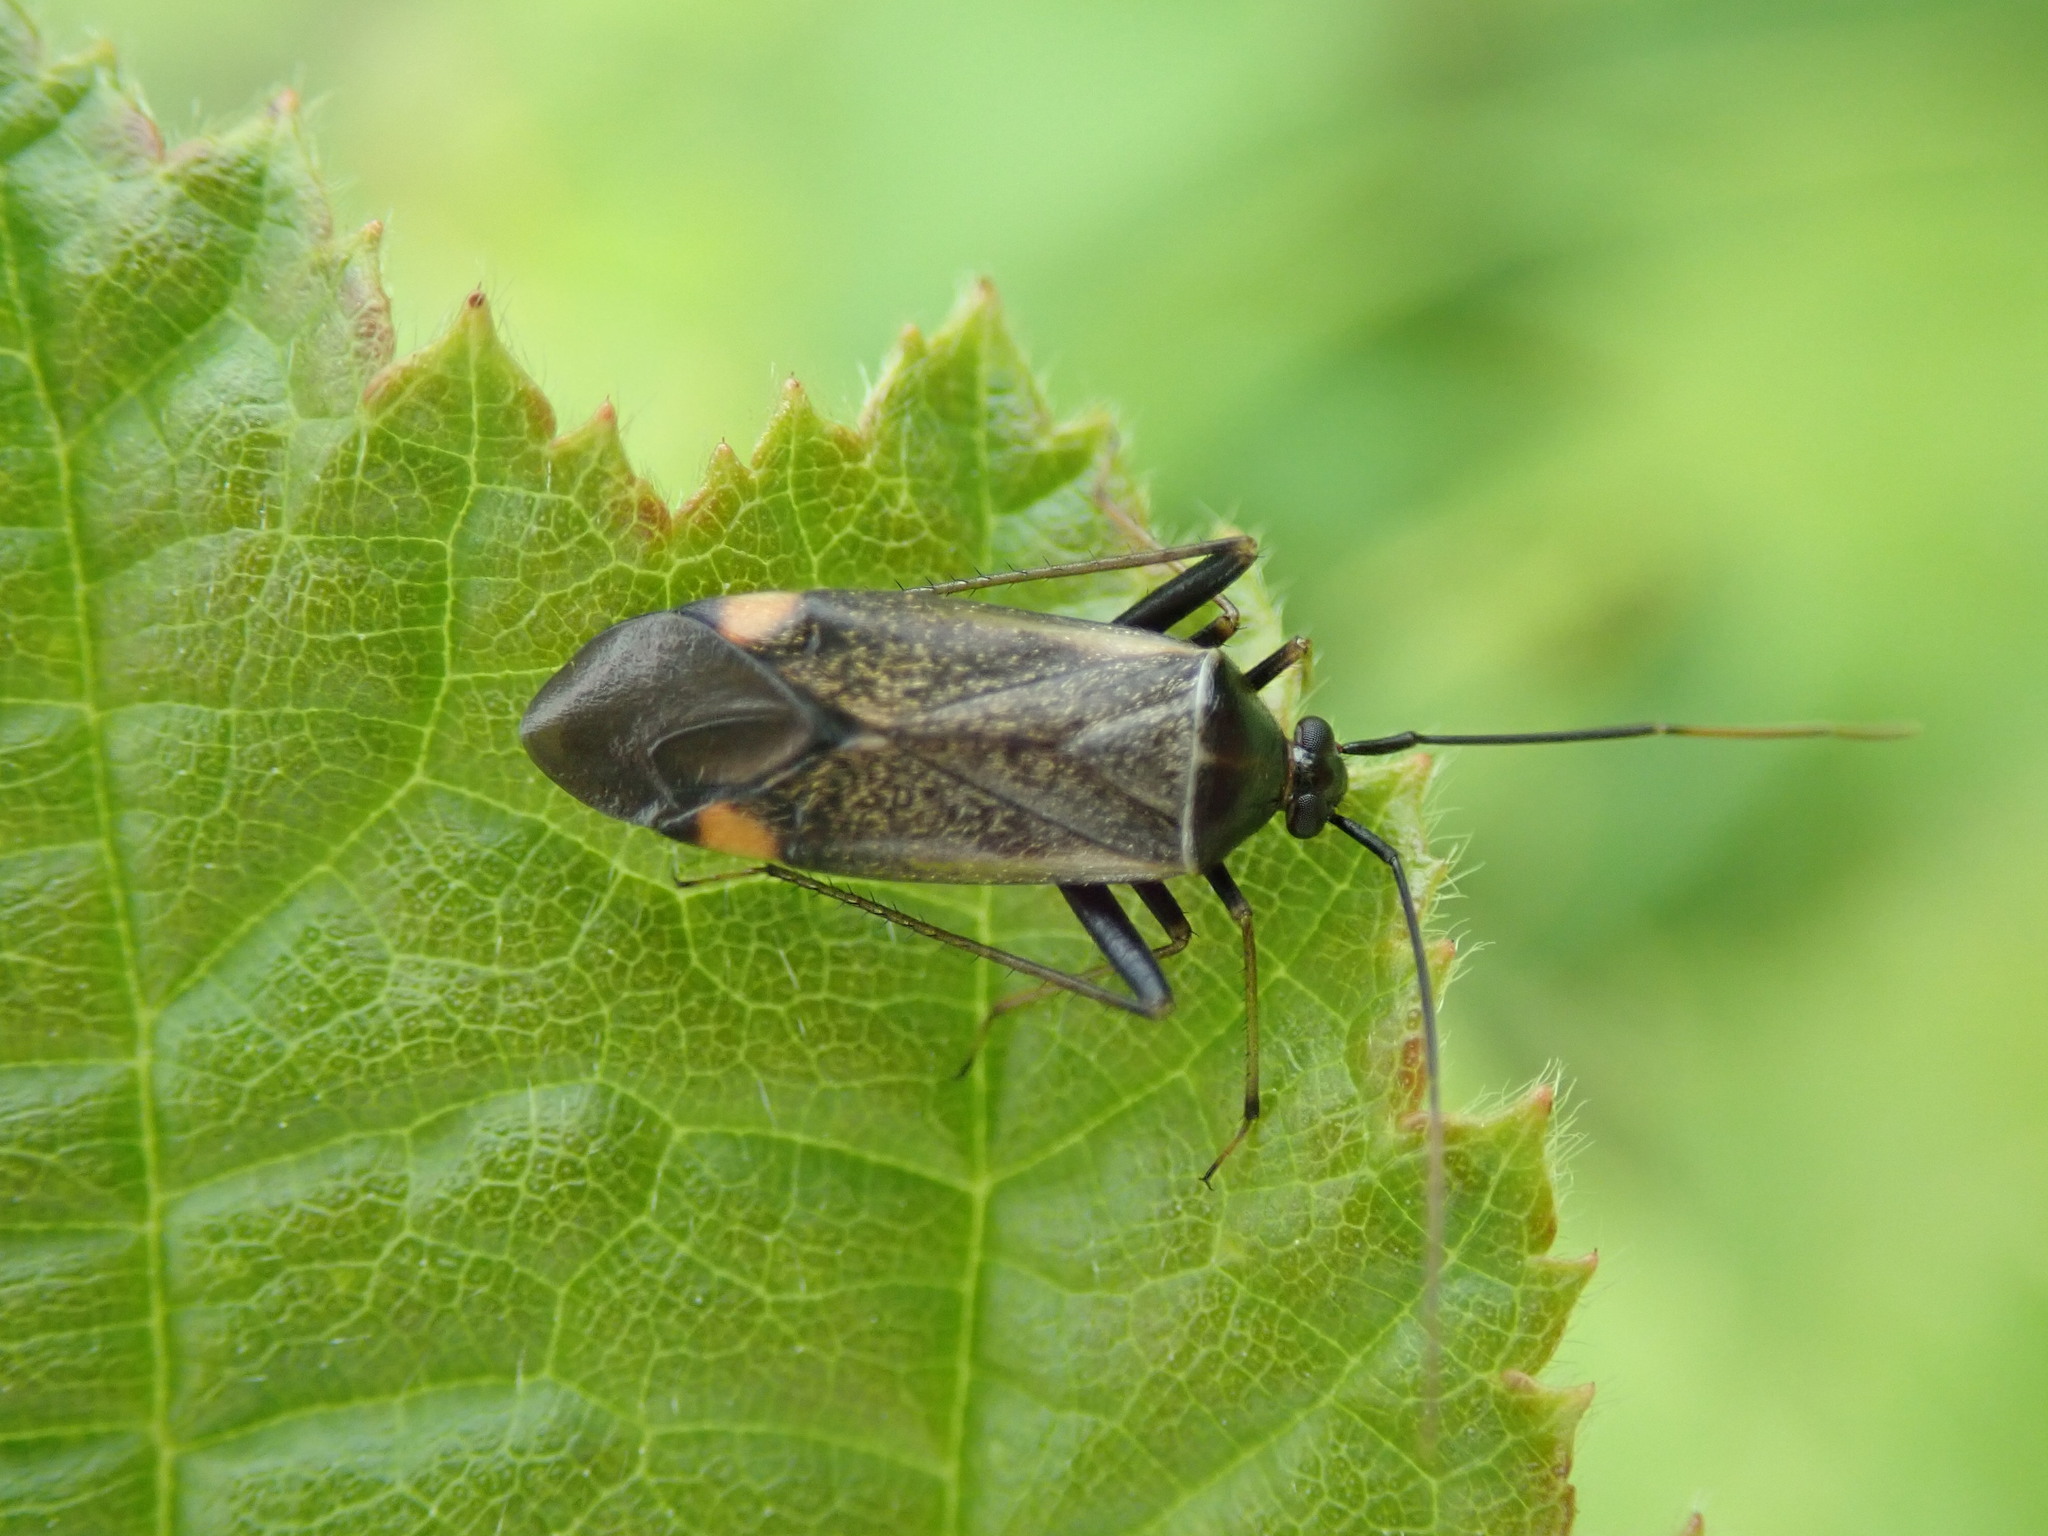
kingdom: Animalia
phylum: Arthropoda
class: Insecta
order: Hemiptera
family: Miridae
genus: Adelphocoris
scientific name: Adelphocoris seticornis
